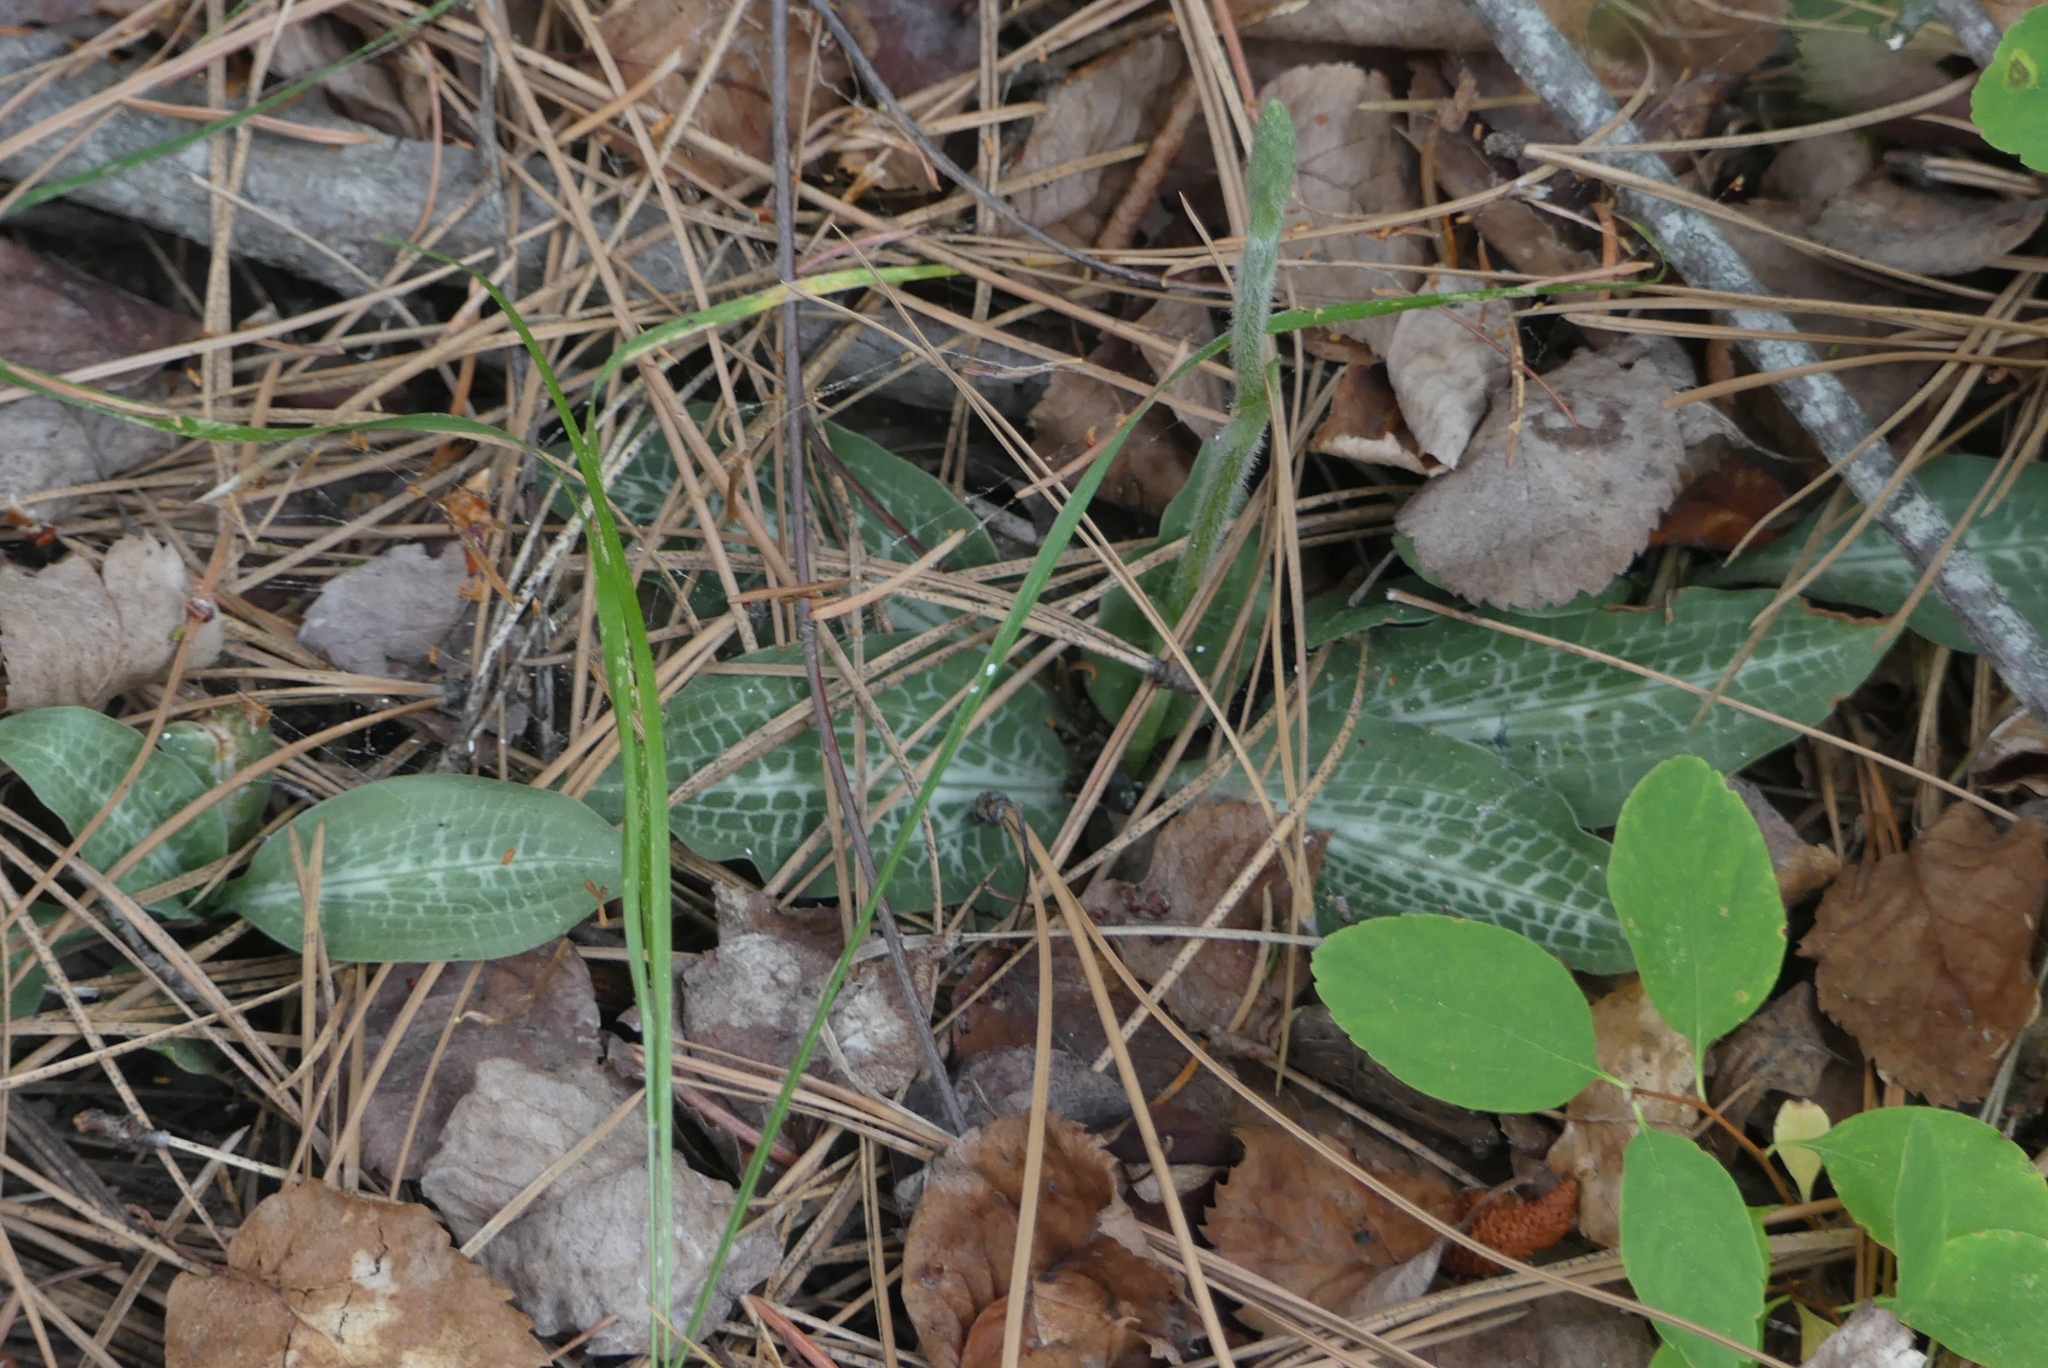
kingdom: Plantae
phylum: Tracheophyta
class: Liliopsida
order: Asparagales
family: Orchidaceae
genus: Goodyera
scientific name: Goodyera oblongifolia
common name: Giant rattlesnake-plantain
